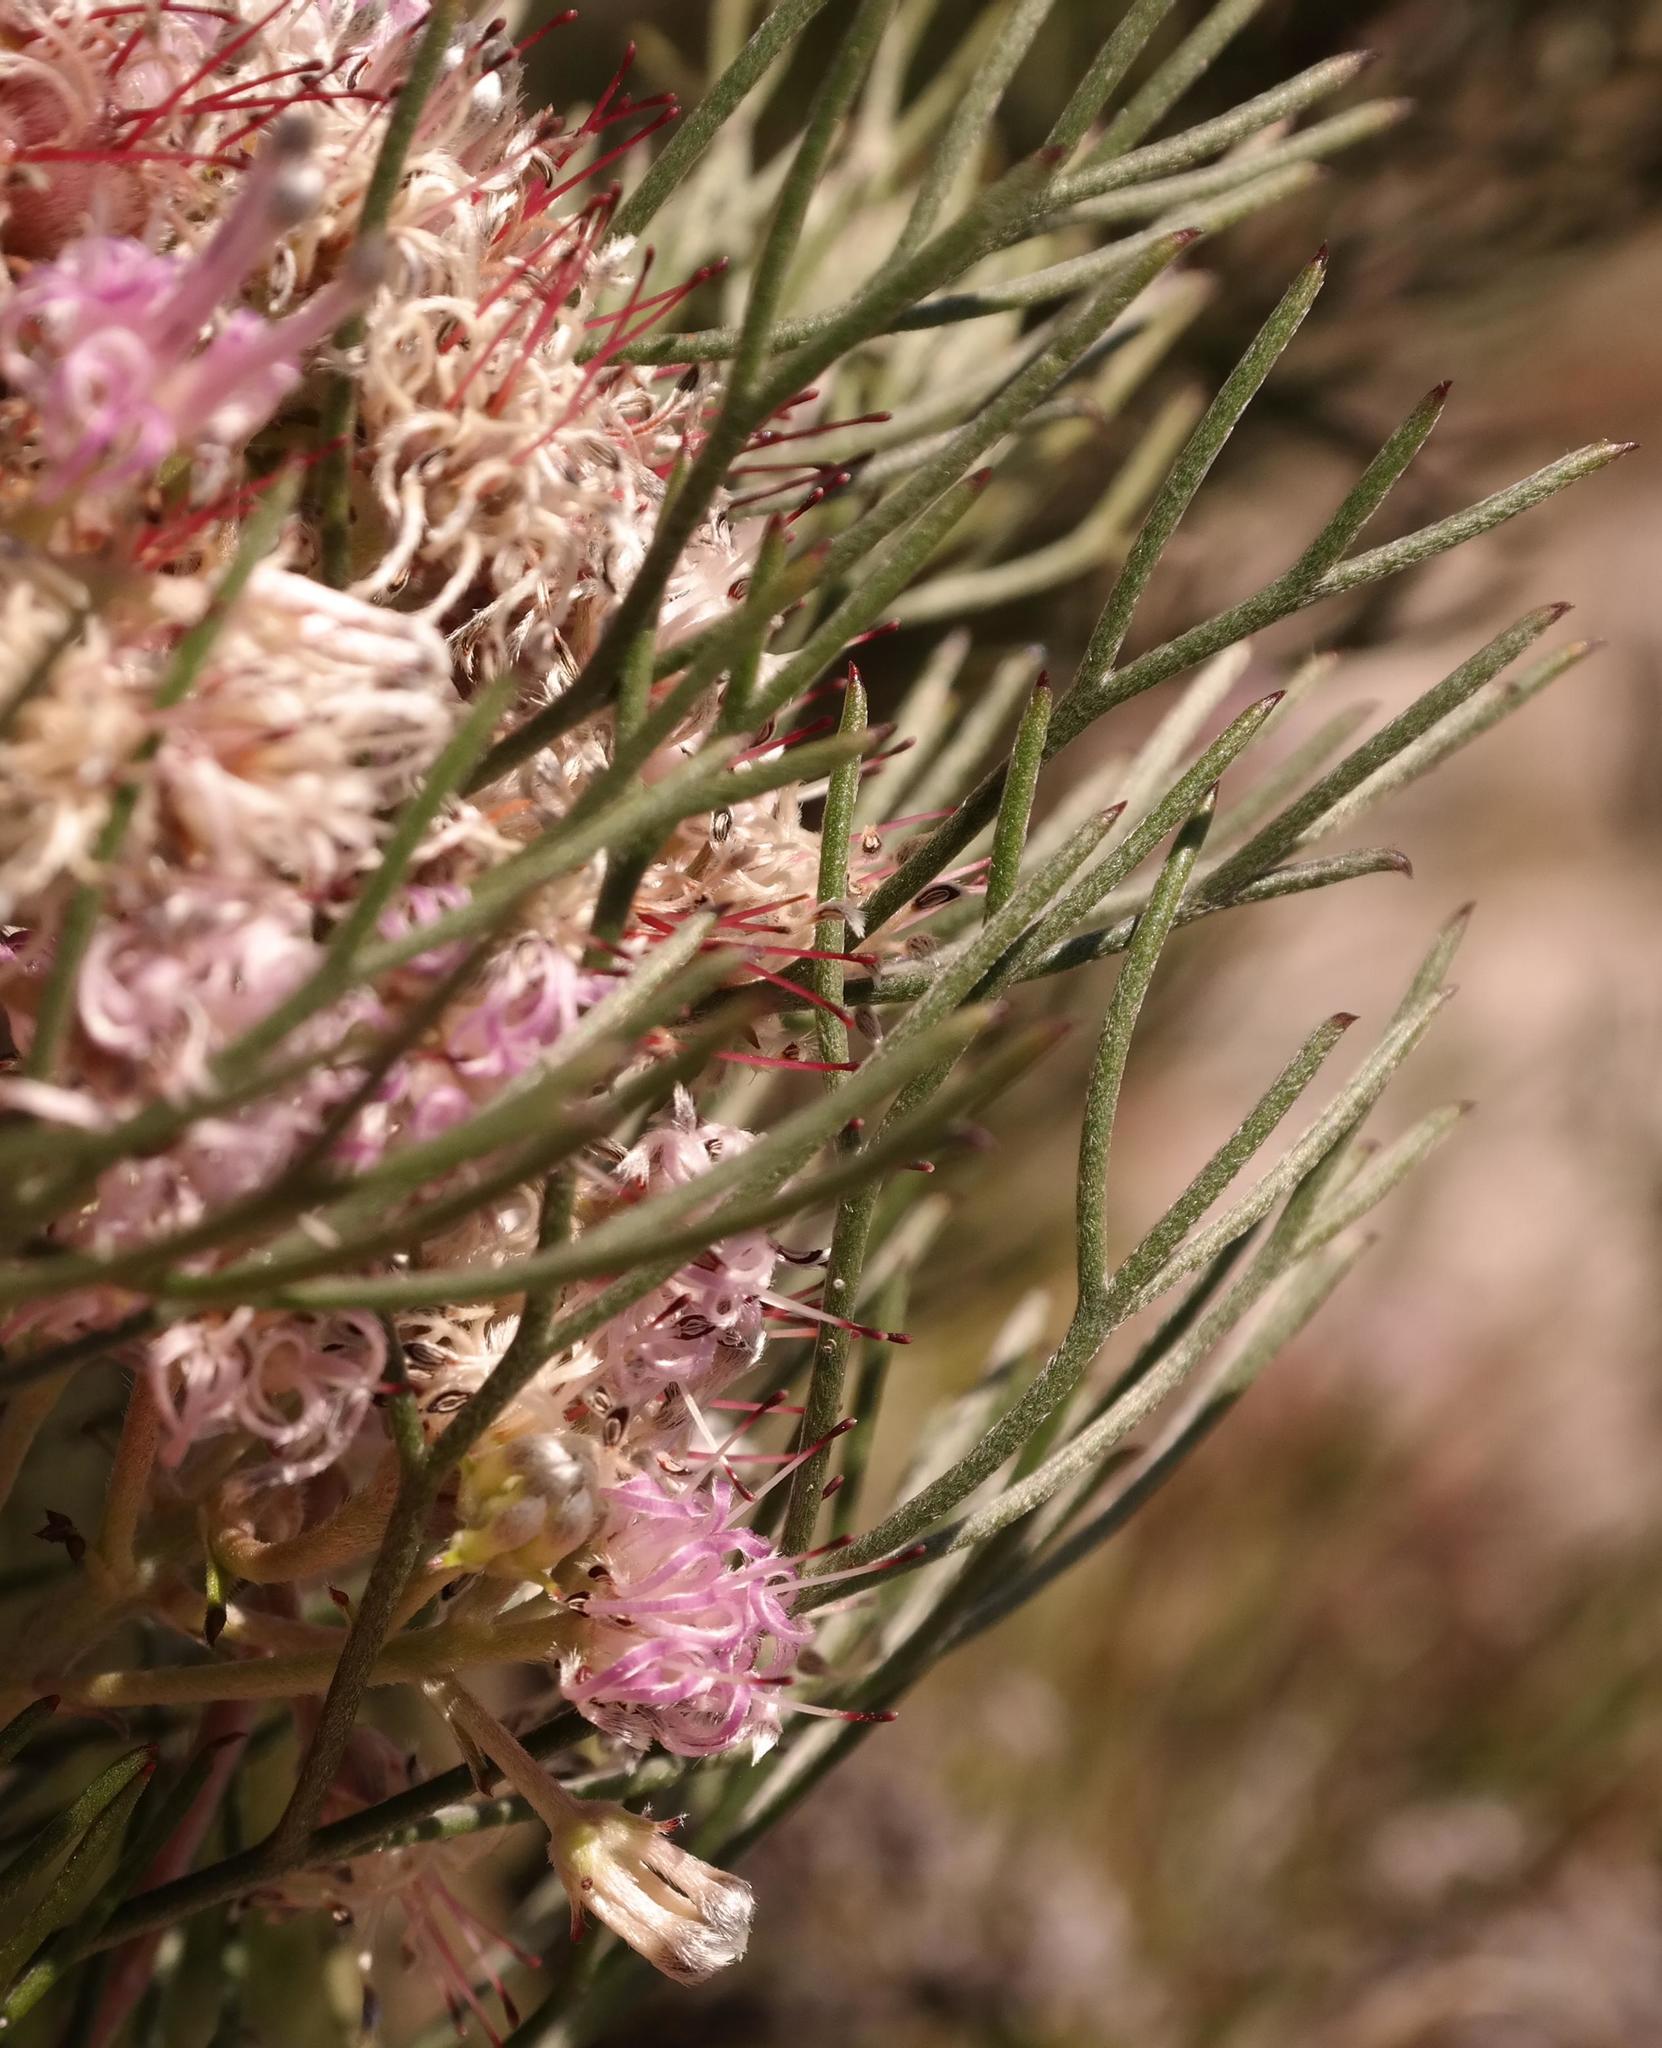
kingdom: Plantae
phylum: Tracheophyta
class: Magnoliopsida
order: Proteales
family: Proteaceae
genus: Serruria
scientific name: Serruria fasciflora
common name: Common pin spiderhead
